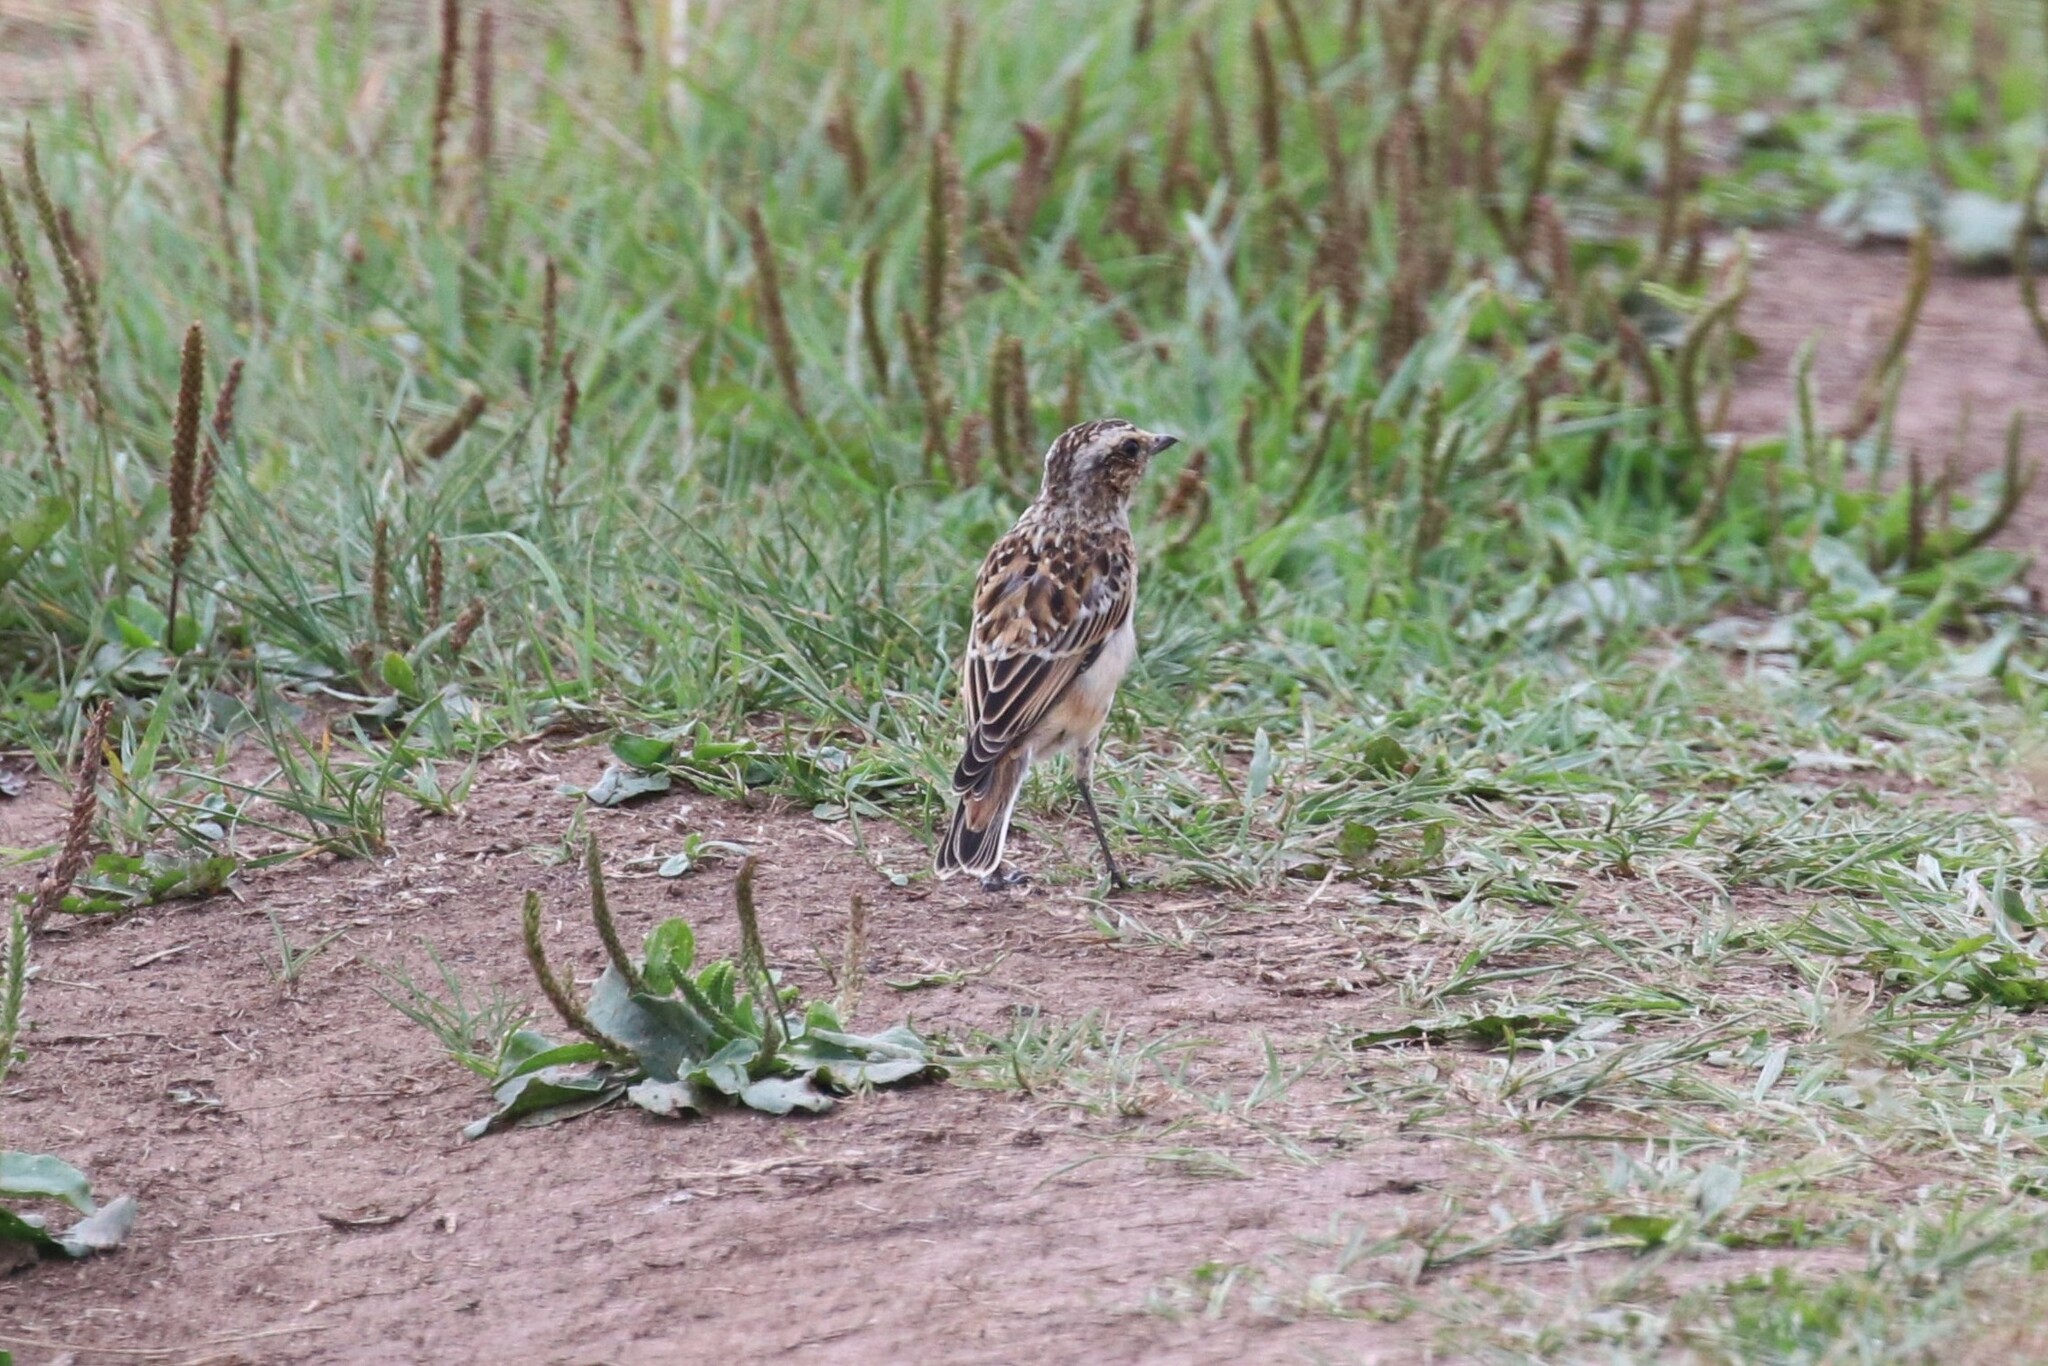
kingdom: Animalia
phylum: Chordata
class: Aves
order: Passeriformes
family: Muscicapidae
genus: Saxicola
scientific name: Saxicola rubetra
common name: Whinchat
